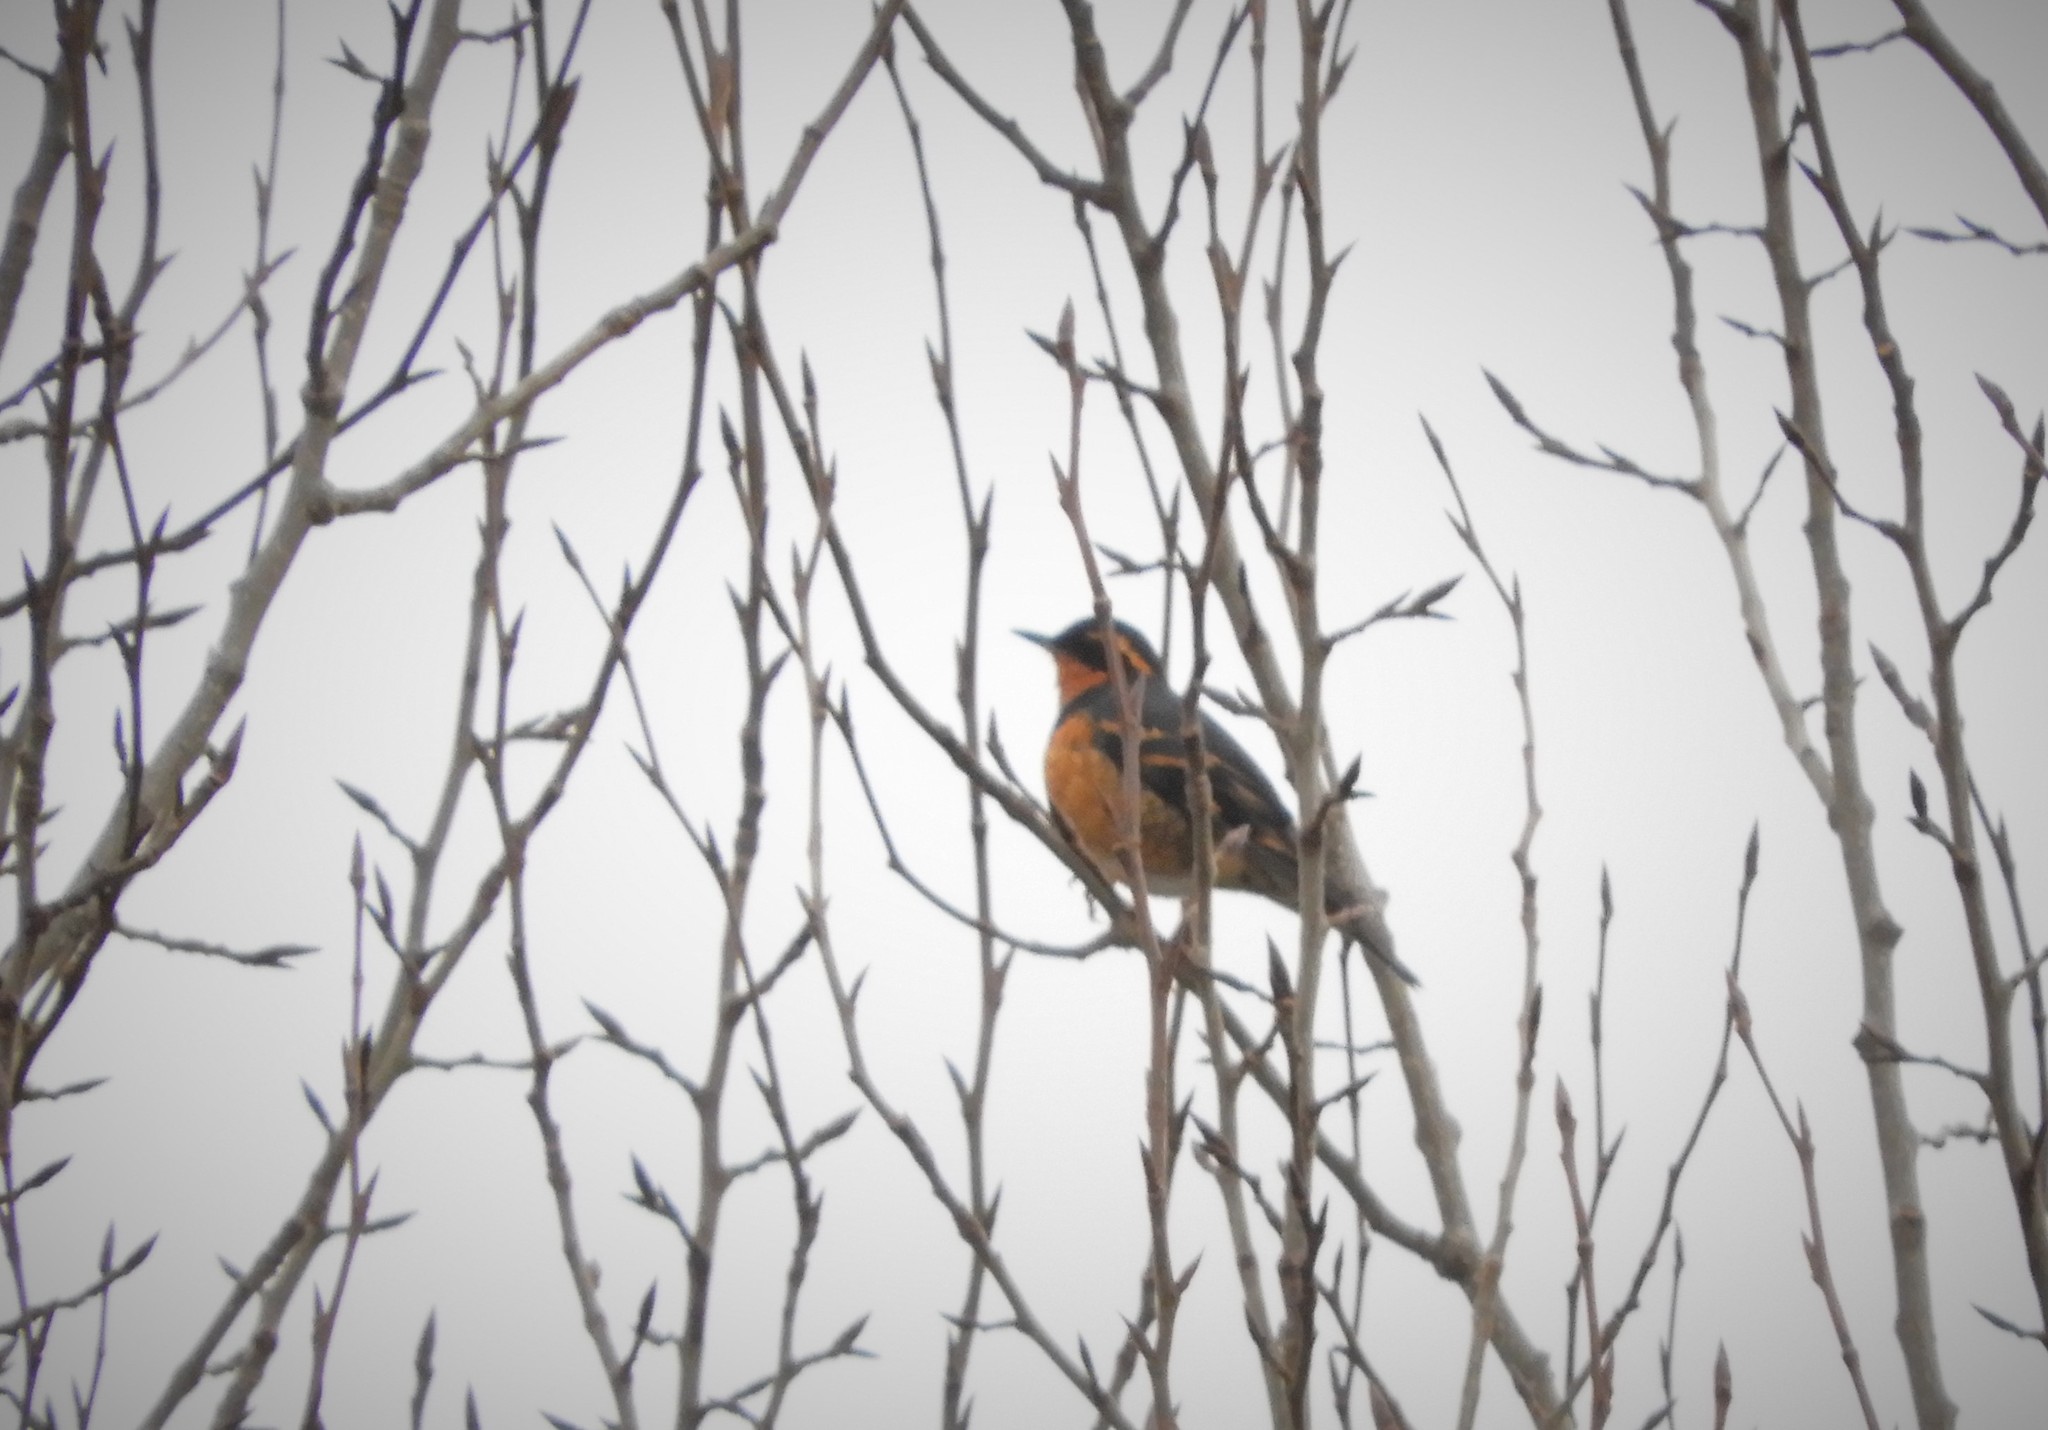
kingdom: Animalia
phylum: Chordata
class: Aves
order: Passeriformes
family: Turdidae
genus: Ixoreus
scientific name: Ixoreus naevius
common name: Varied thrush
